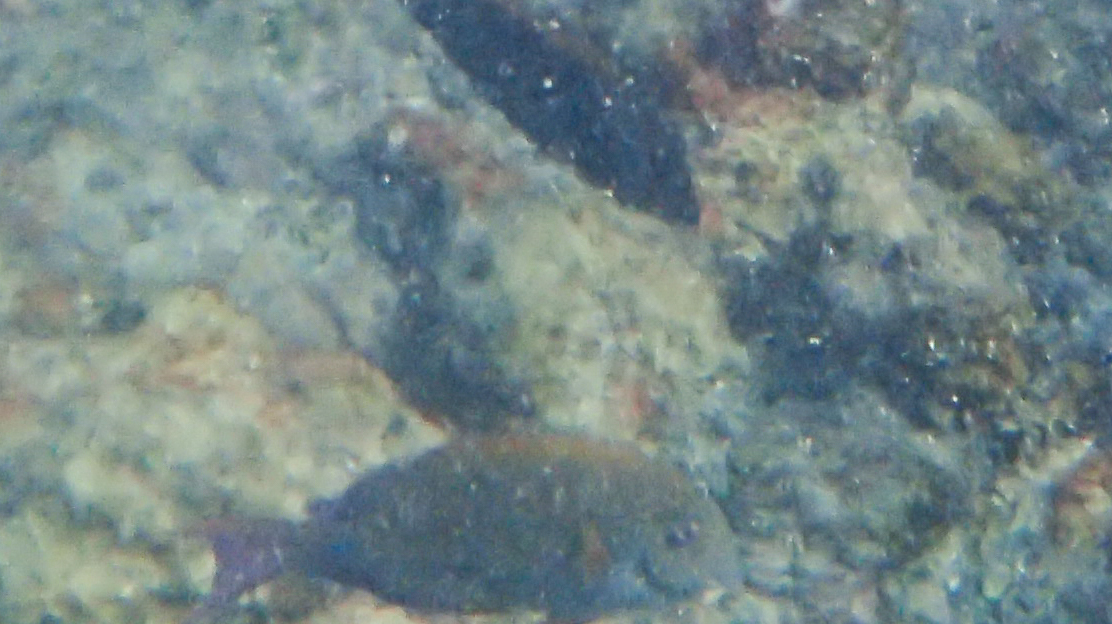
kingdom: Animalia
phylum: Chordata
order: Perciformes
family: Acanthuridae
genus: Acanthurus
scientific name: Acanthurus nigrofuscus
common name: Blackspot surgeonfish
